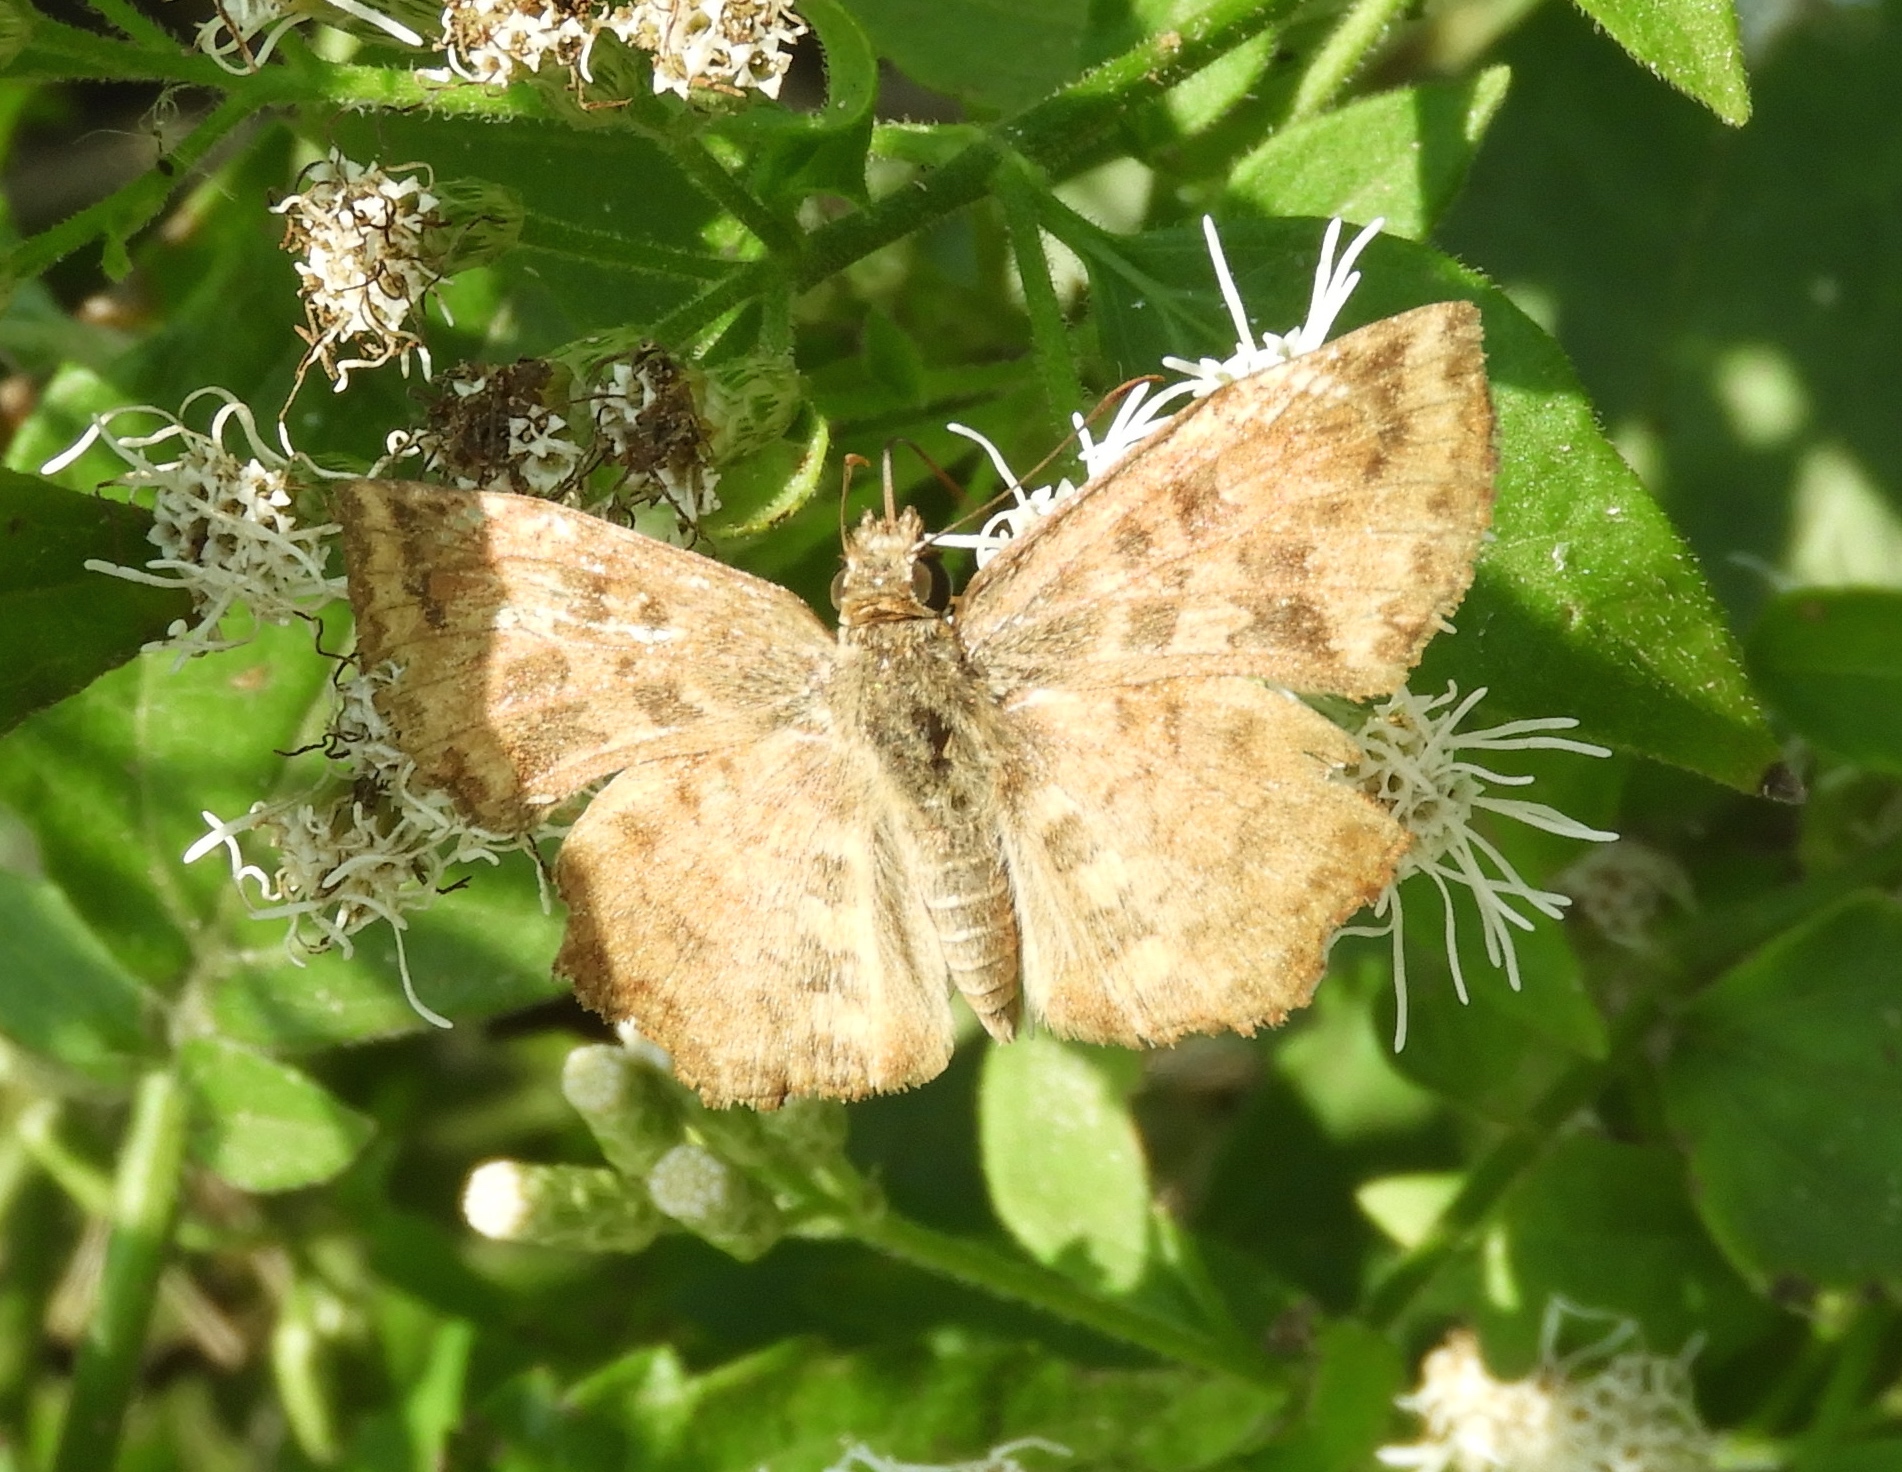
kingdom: Animalia
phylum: Arthropoda
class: Insecta
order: Lepidoptera
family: Hesperiidae
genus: Antigonus
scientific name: Antigonus erosus
